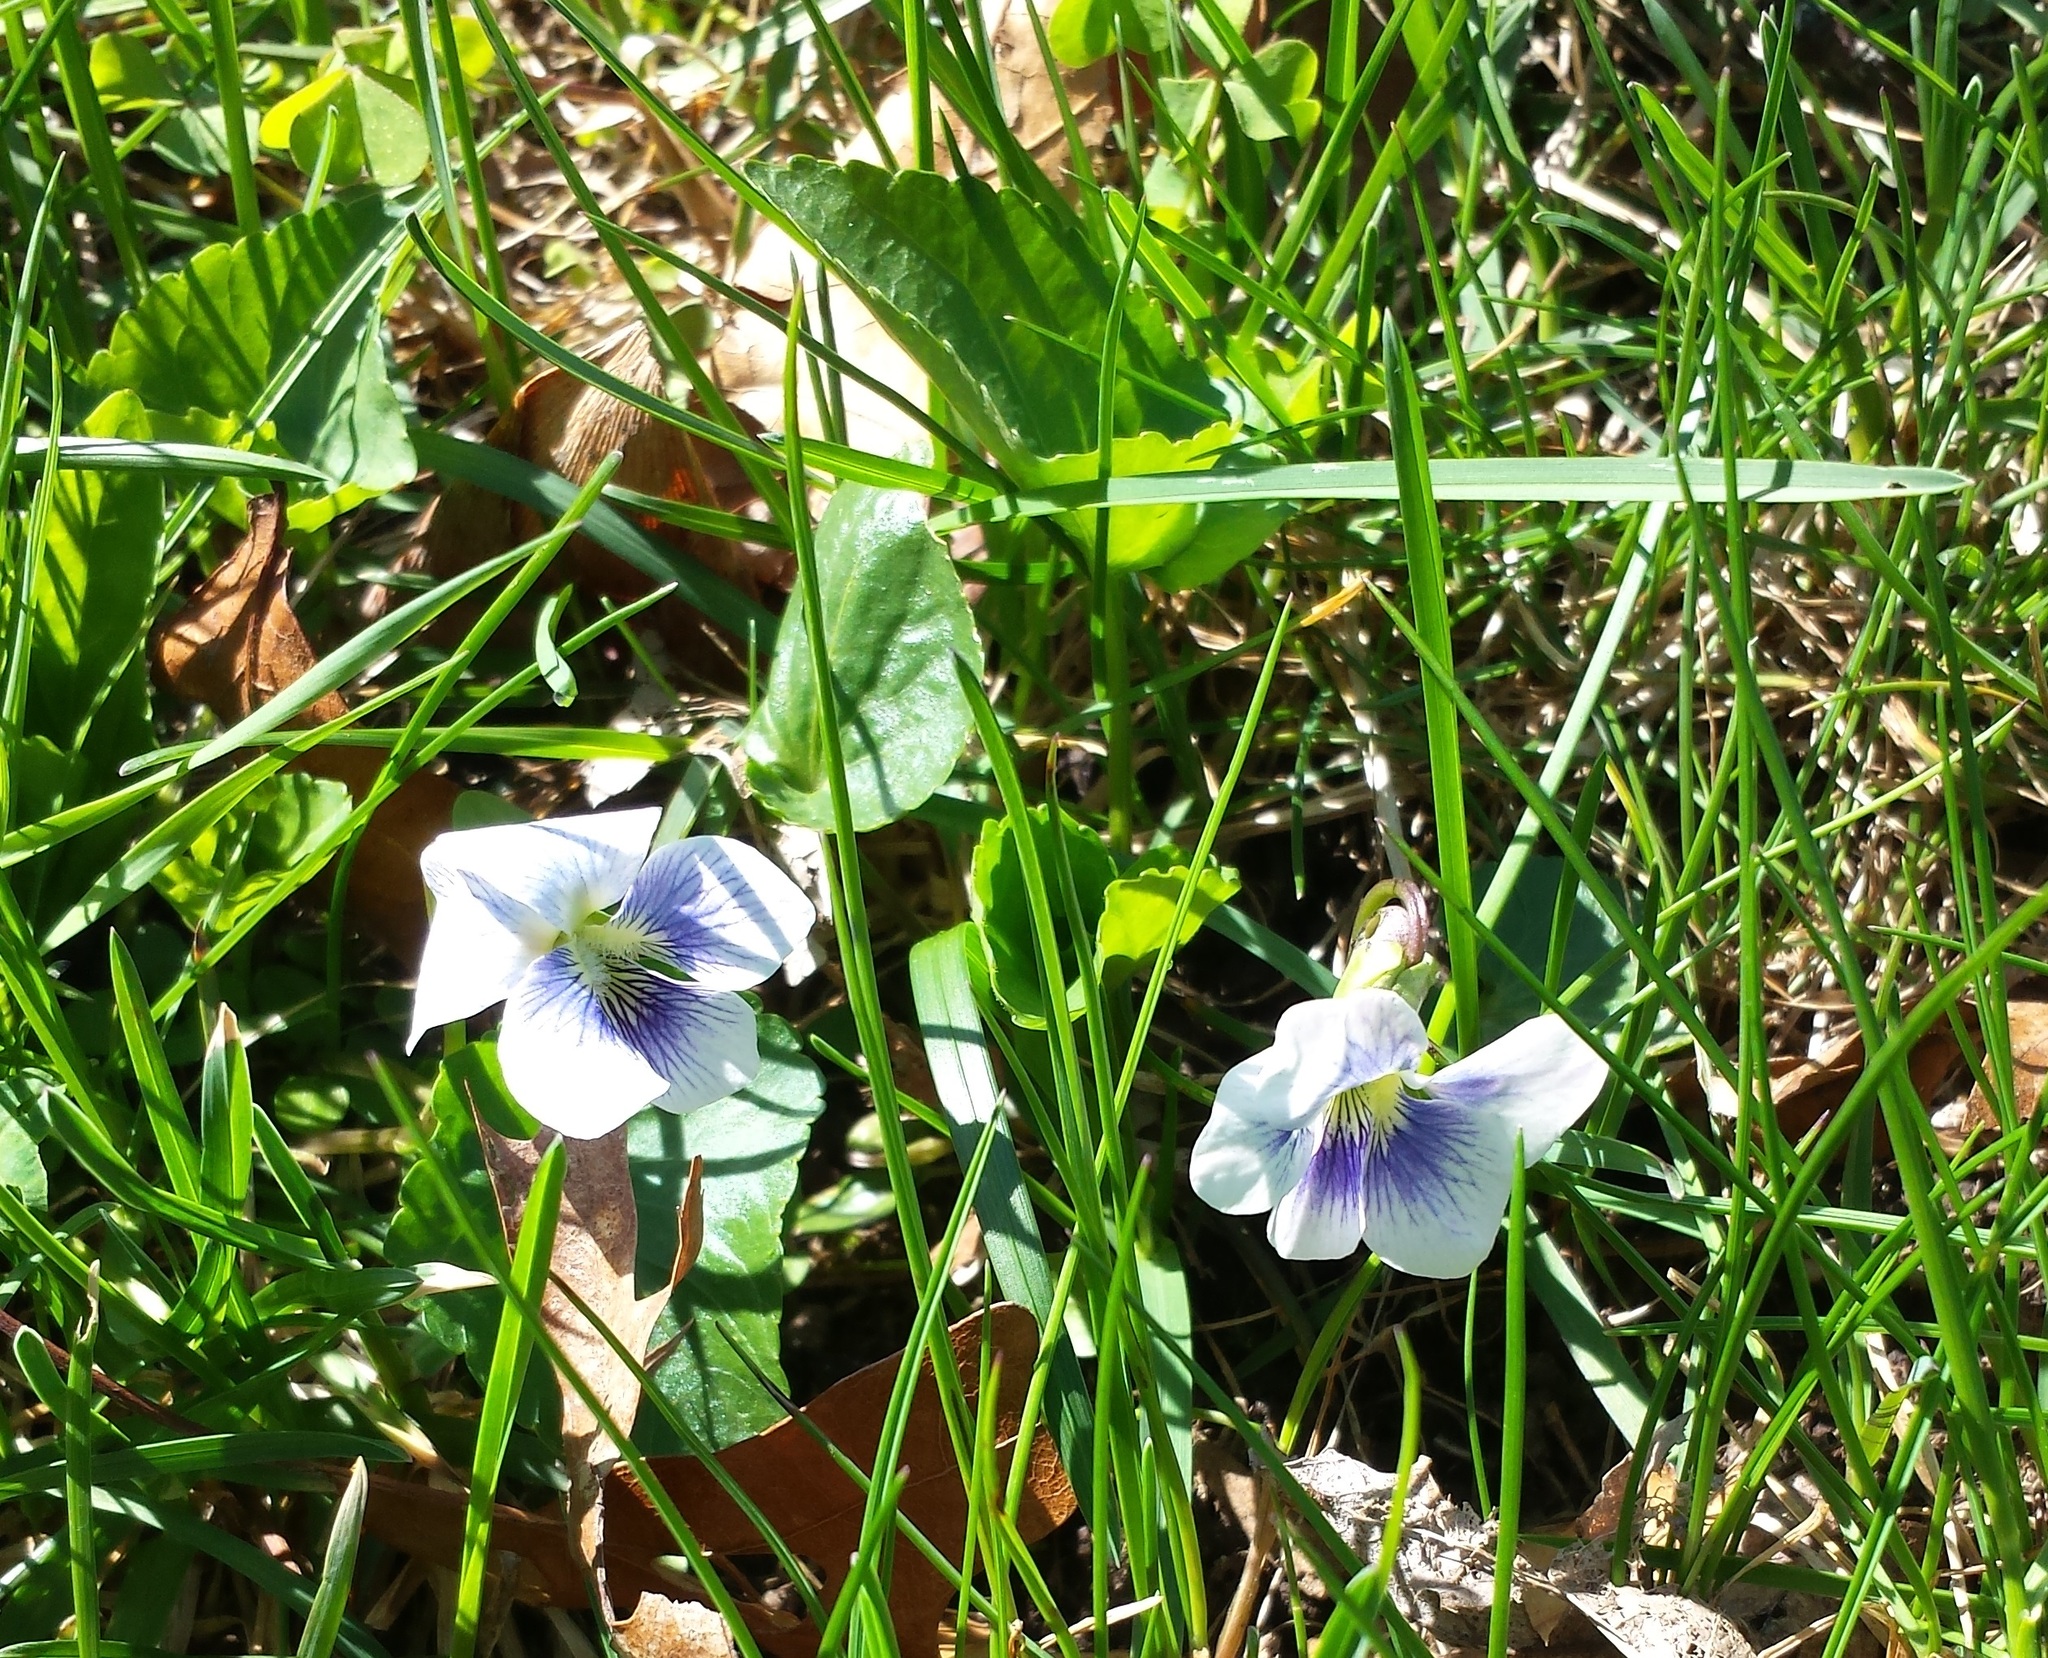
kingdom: Plantae
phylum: Tracheophyta
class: Magnoliopsida
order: Malpighiales
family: Violaceae
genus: Viola
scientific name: Viola sororia
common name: Dooryard violet
